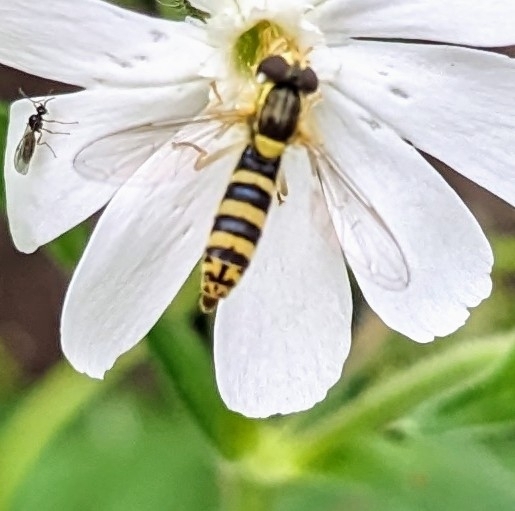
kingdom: Animalia
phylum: Arthropoda
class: Insecta
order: Diptera
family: Syrphidae
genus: Sphaerophoria
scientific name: Sphaerophoria
